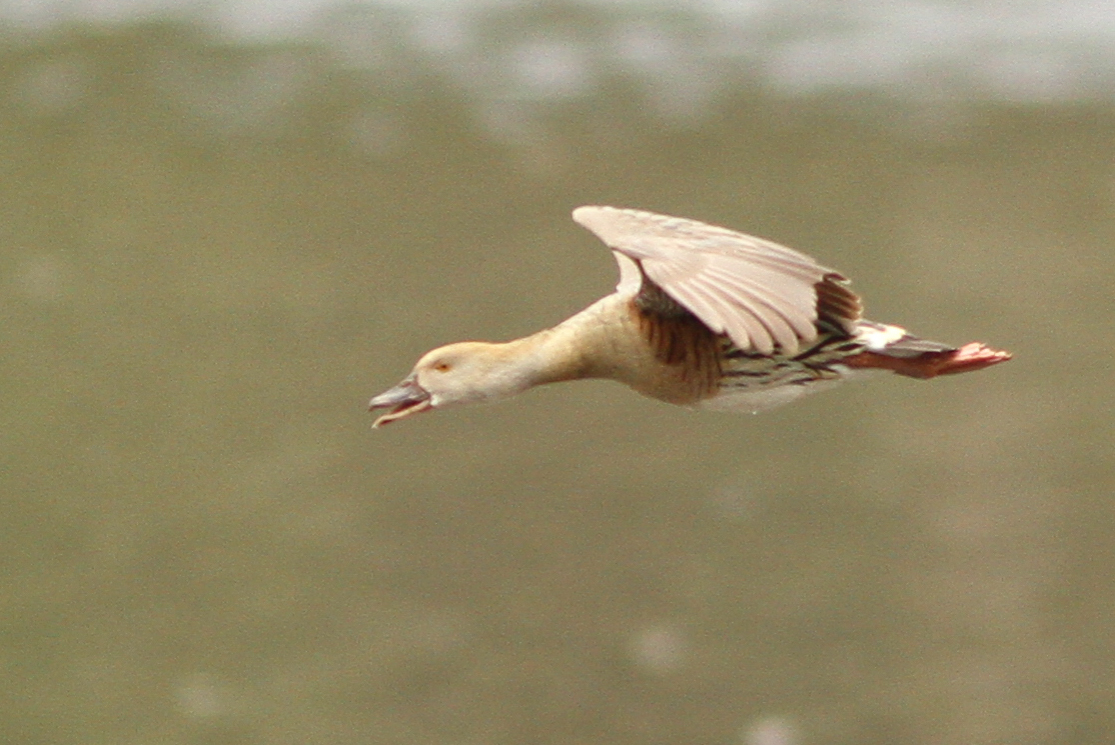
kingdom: Animalia
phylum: Chordata
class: Aves
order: Anseriformes
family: Anatidae
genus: Dendrocygna
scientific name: Dendrocygna eytoni
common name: Plumed whistling-duck
